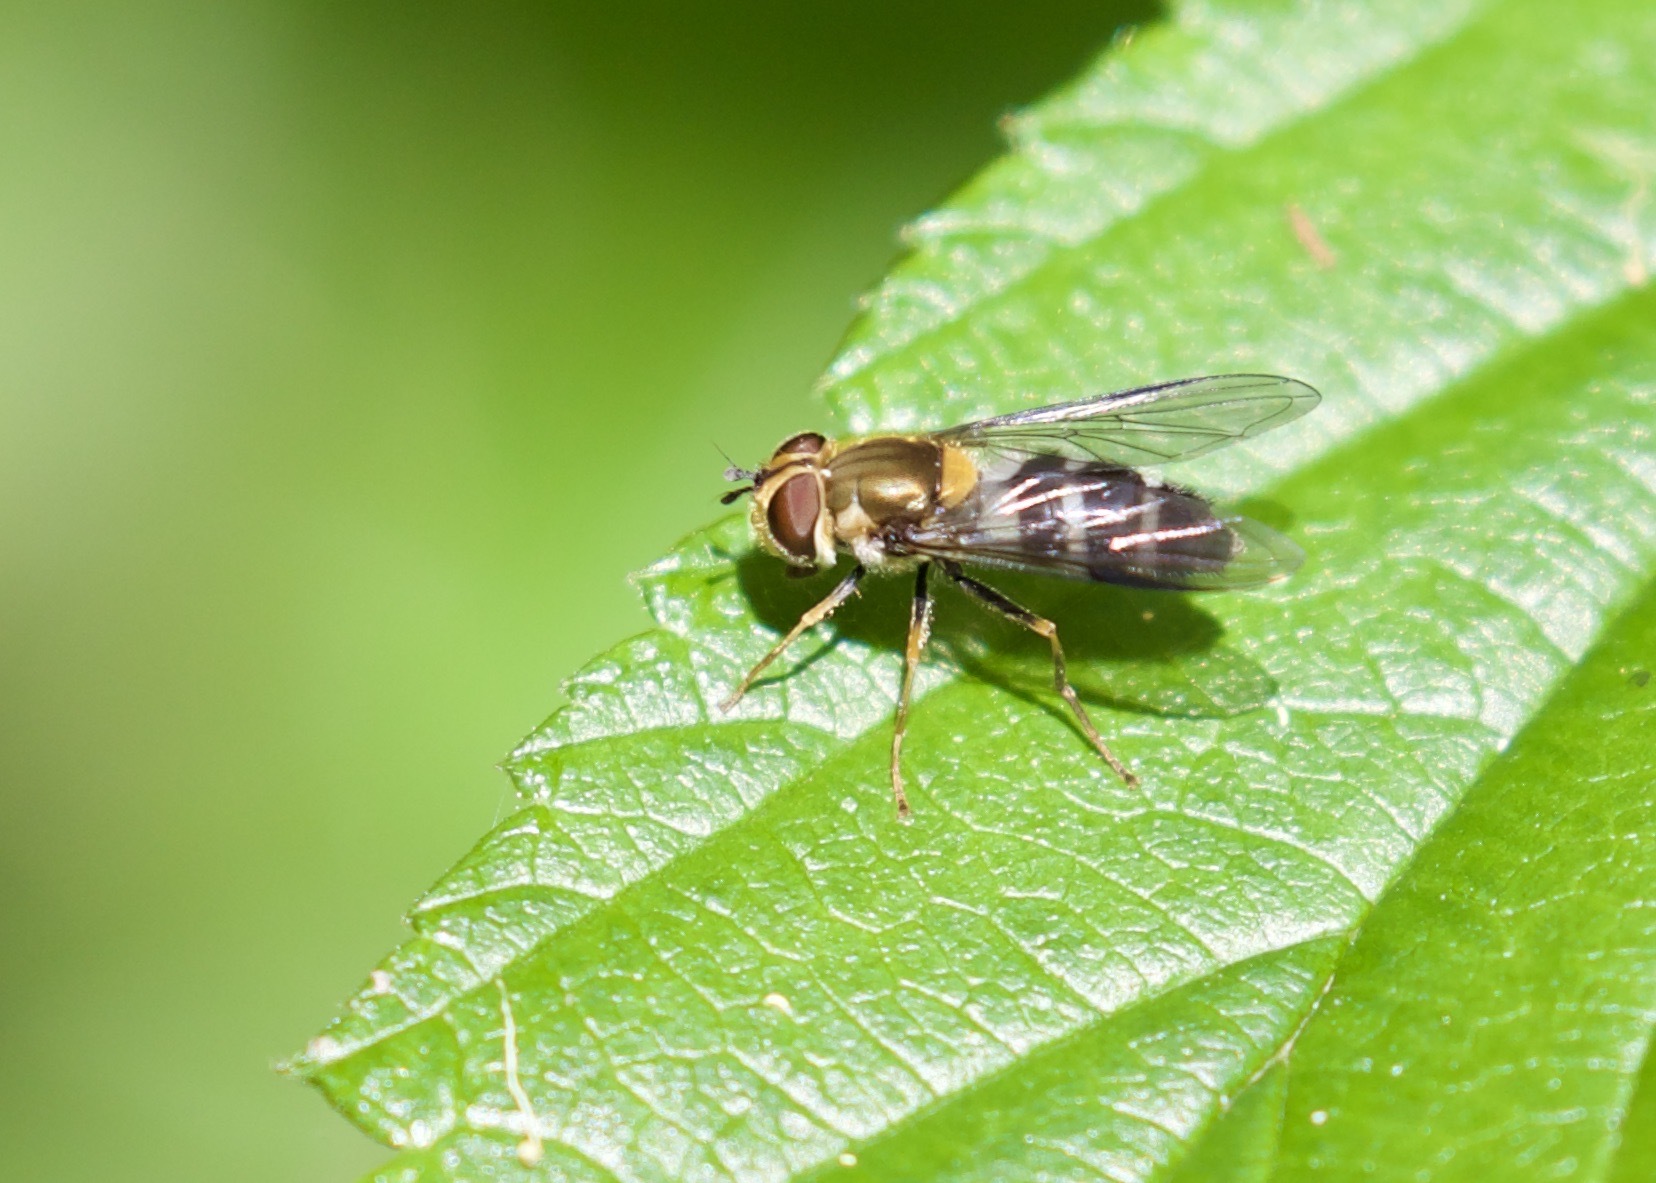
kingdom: Animalia
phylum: Arthropoda
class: Insecta
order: Diptera
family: Syrphidae
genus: Leucozona
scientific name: Leucozona glaucia
